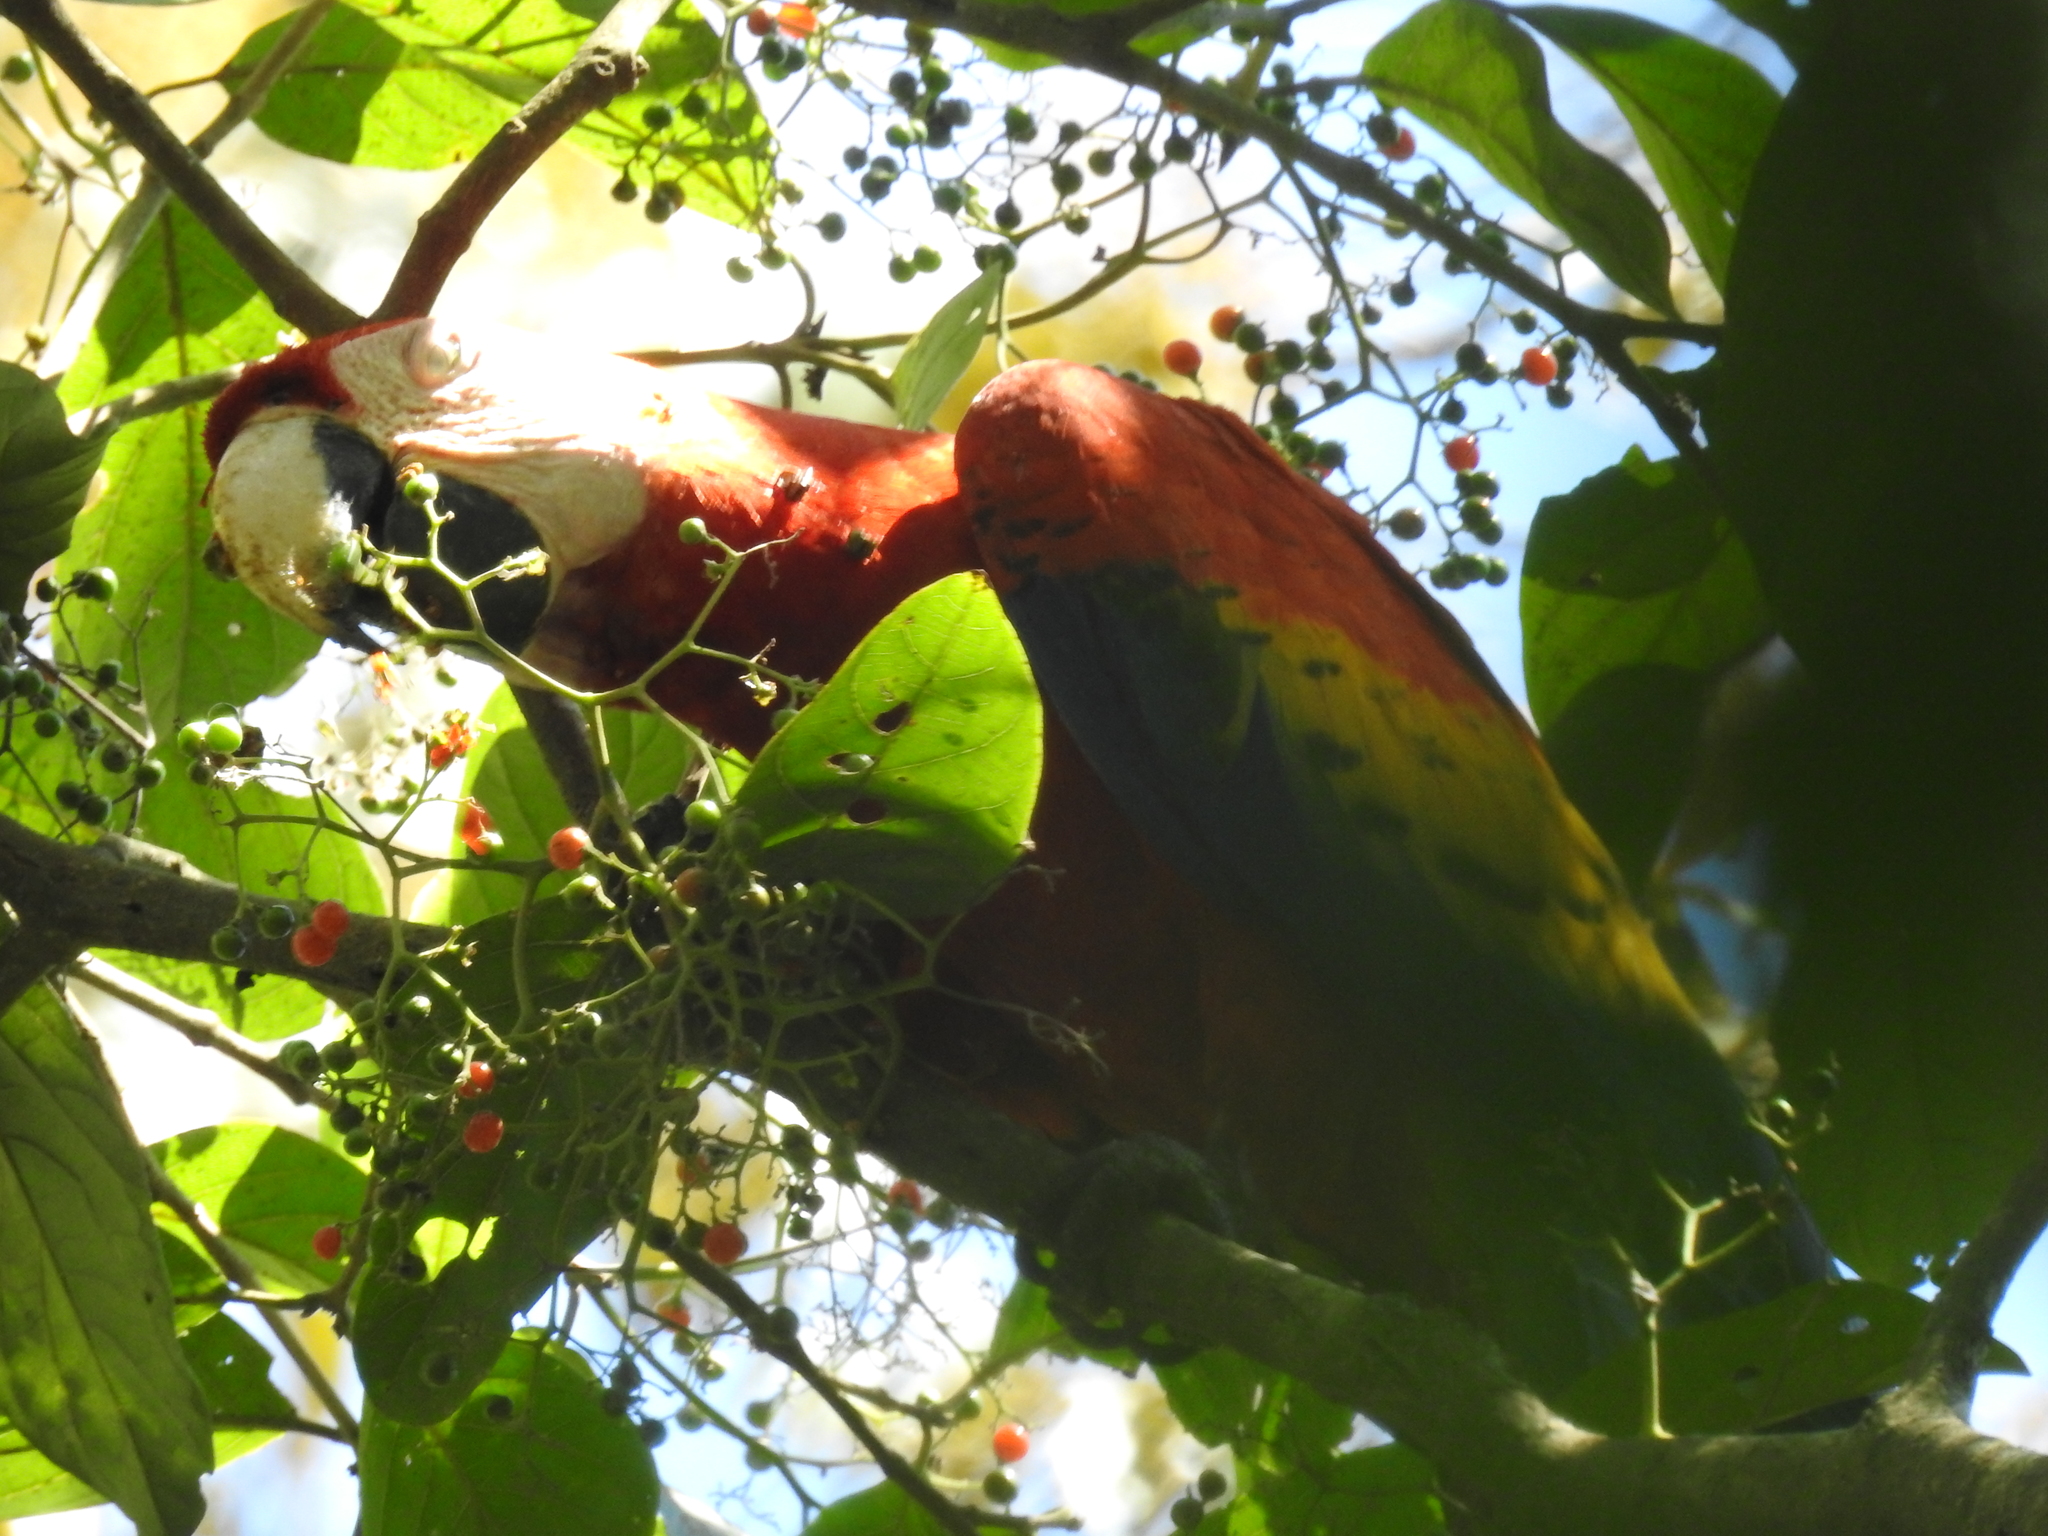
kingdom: Animalia
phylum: Chordata
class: Aves
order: Psittaciformes
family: Psittacidae
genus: Ara
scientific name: Ara macao
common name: Scarlet macaw
